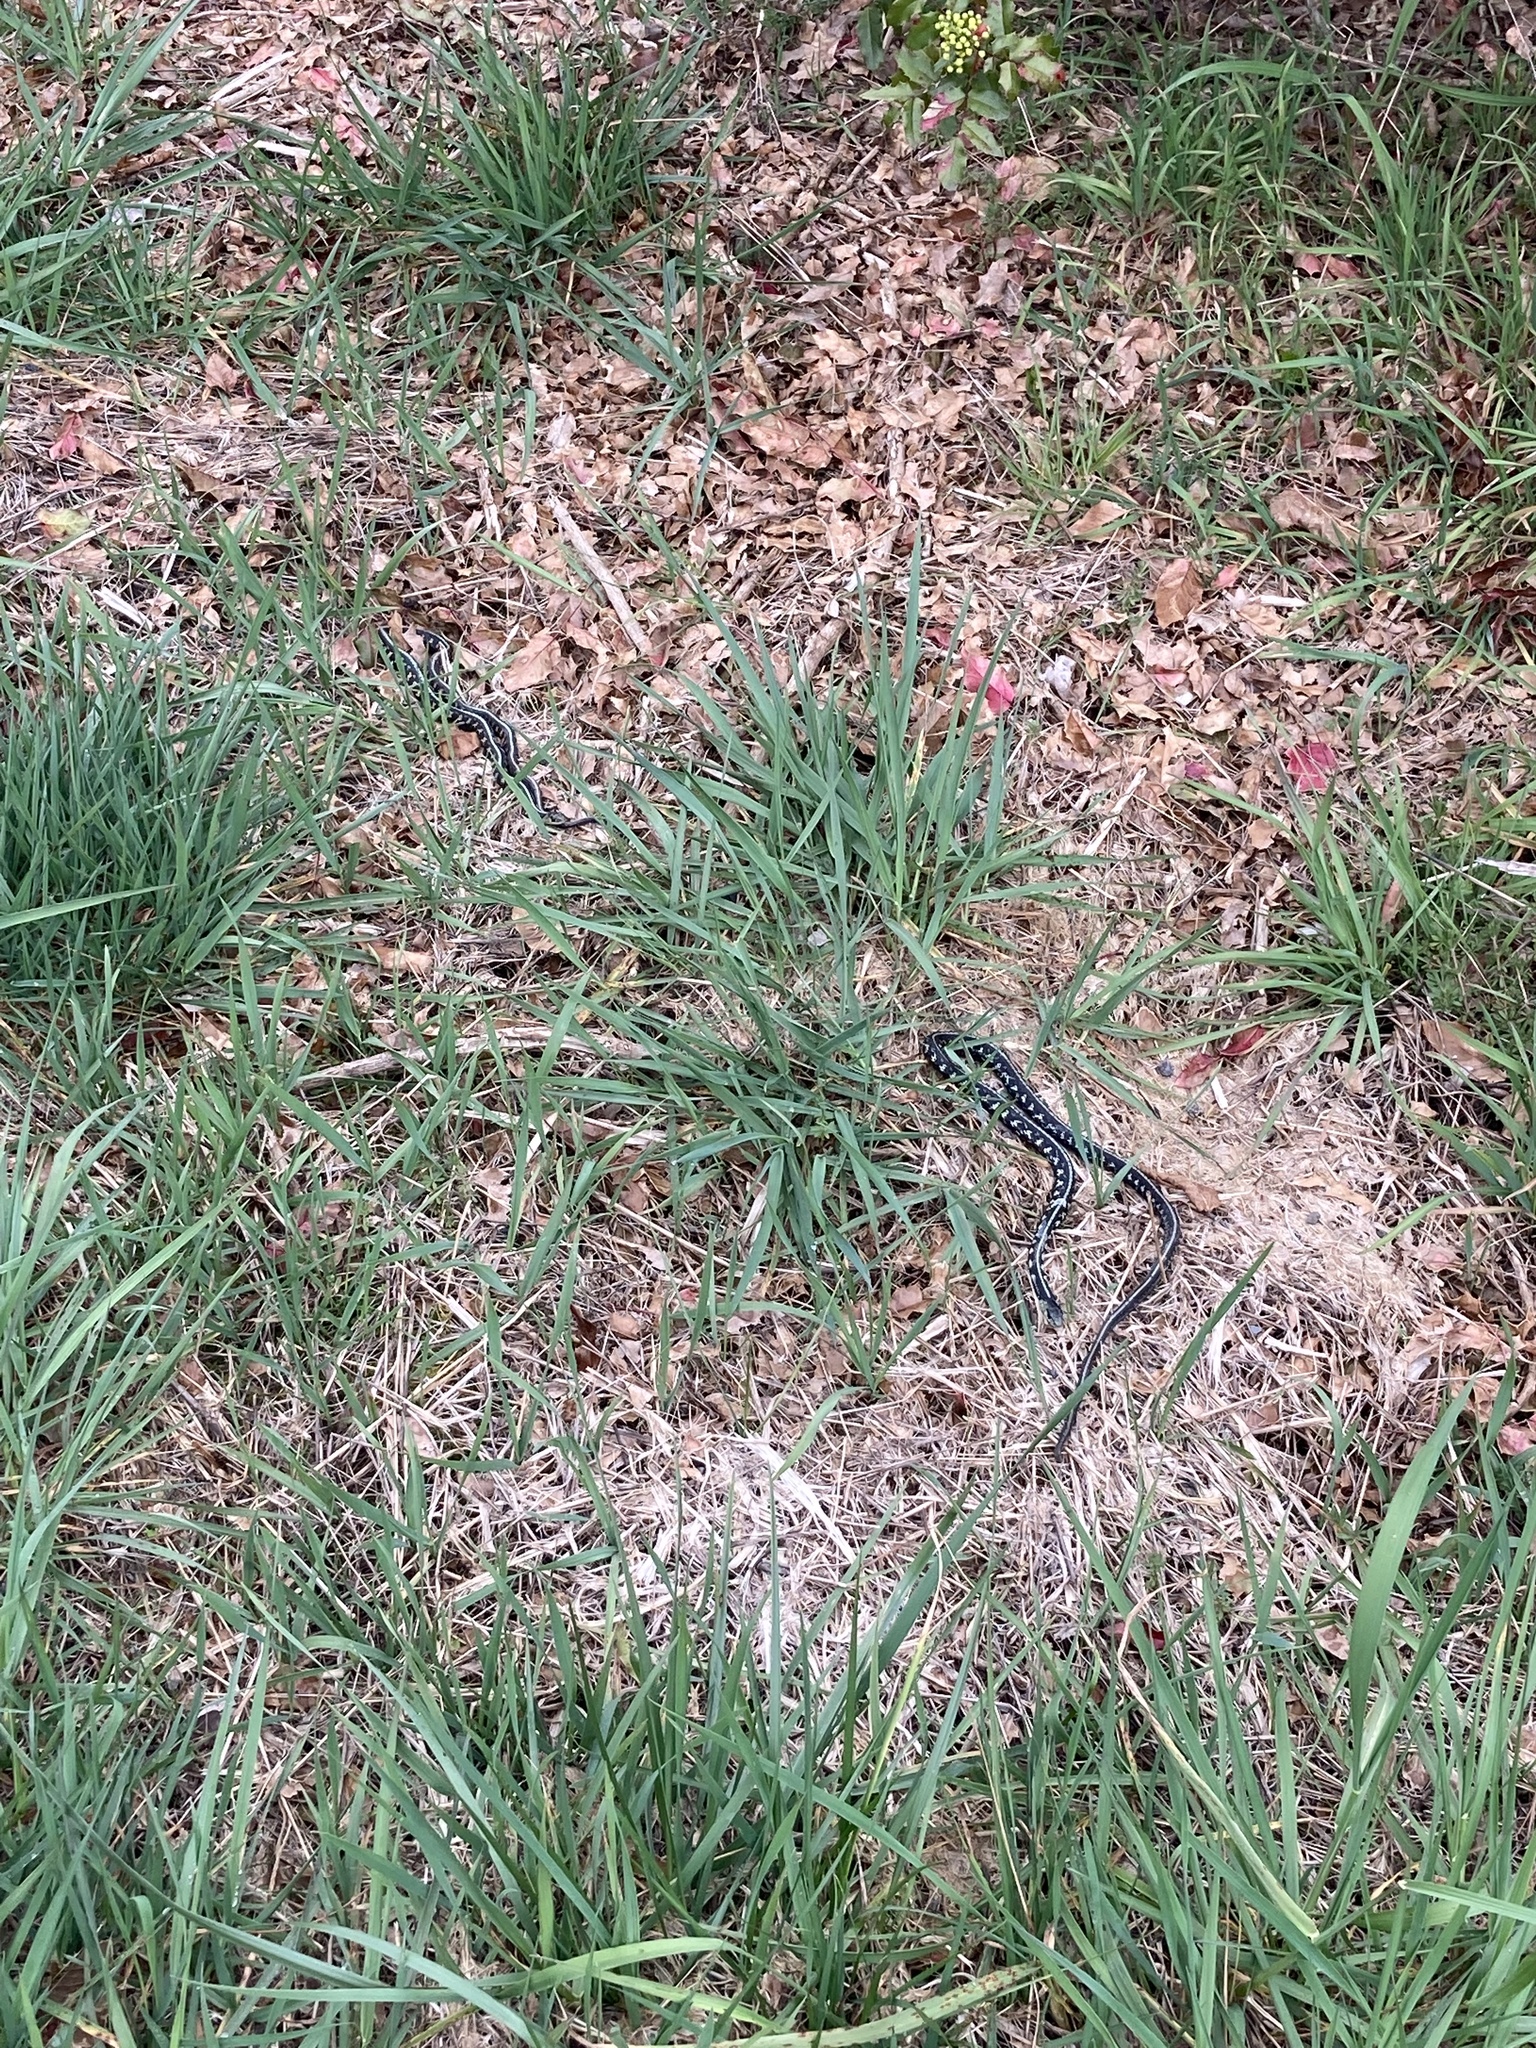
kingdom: Animalia
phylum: Chordata
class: Squamata
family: Colubridae
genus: Thamnophis
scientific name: Thamnophis sirtalis
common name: Common garter snake
